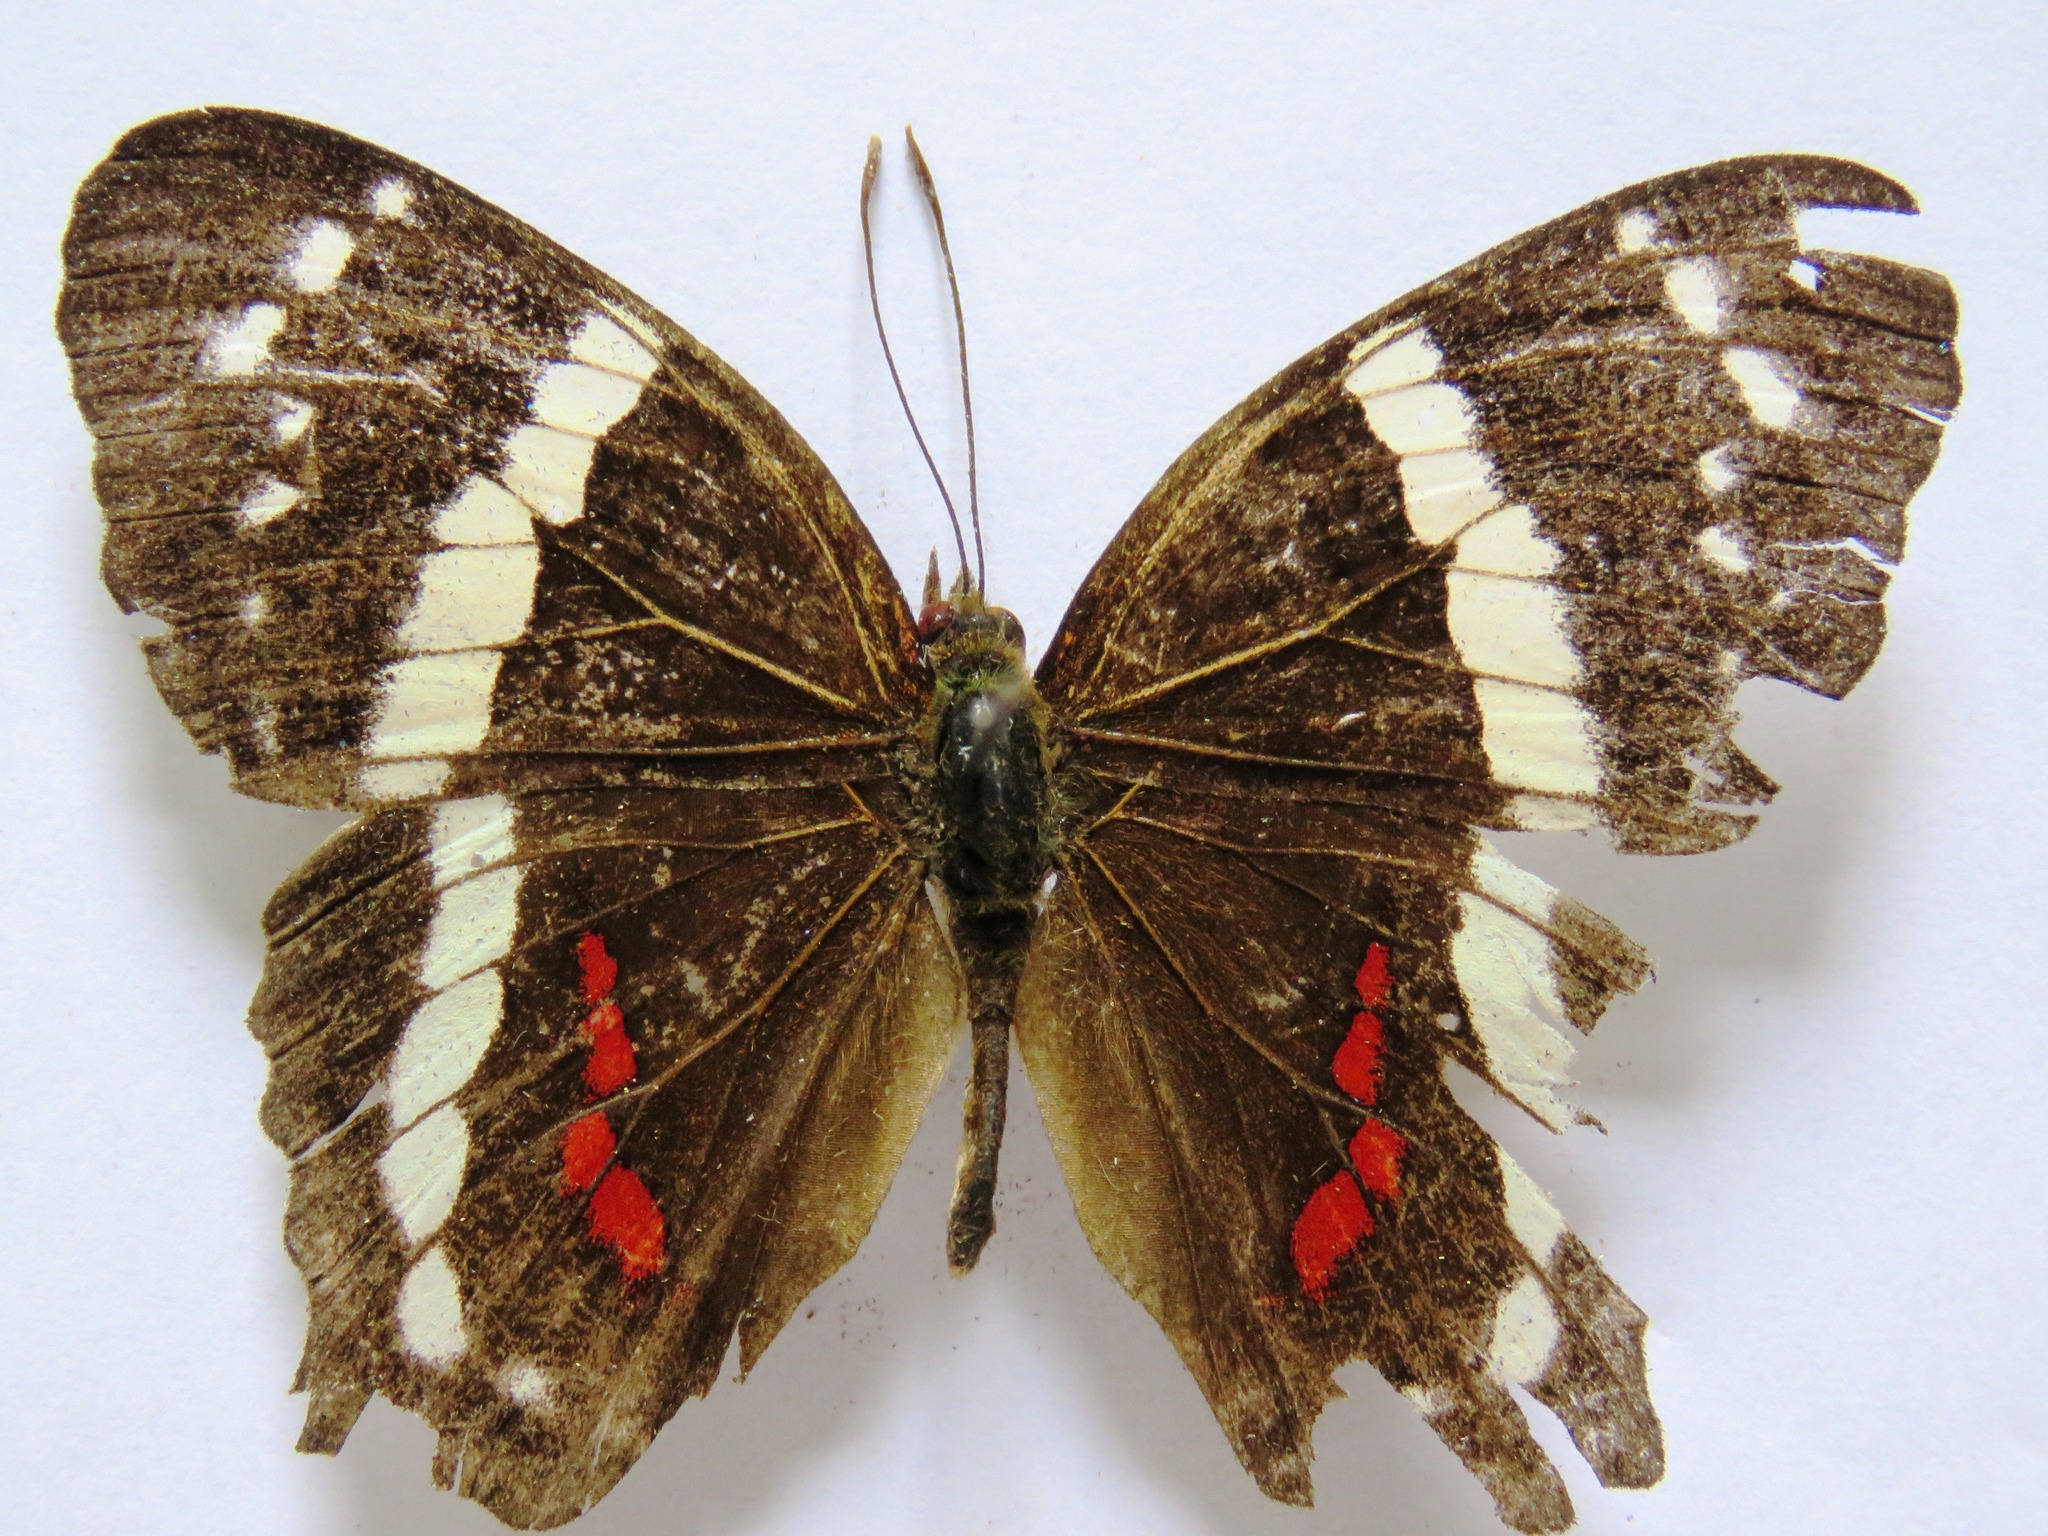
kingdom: Animalia
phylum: Arthropoda
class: Insecta
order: Lepidoptera
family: Nymphalidae
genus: Anartia
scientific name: Anartia fatima
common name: Banded peacock
